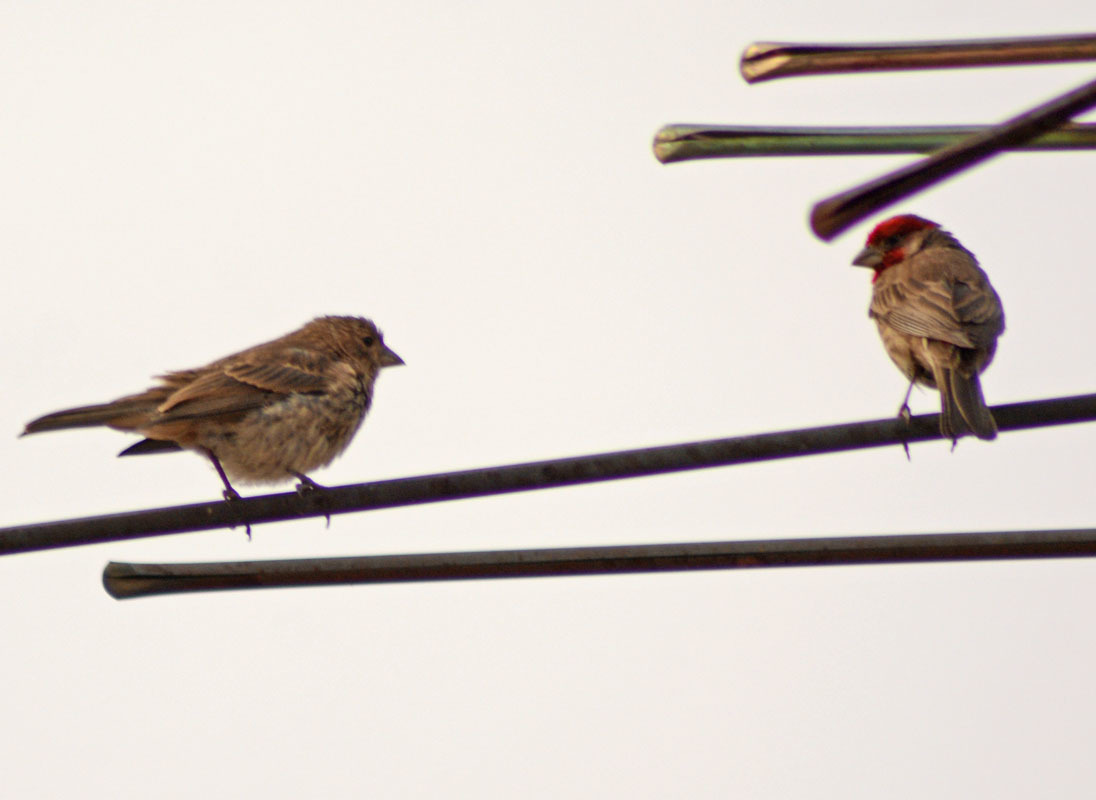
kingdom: Animalia
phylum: Chordata
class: Aves
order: Passeriformes
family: Fringillidae
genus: Haemorhous
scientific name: Haemorhous mexicanus
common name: House finch
